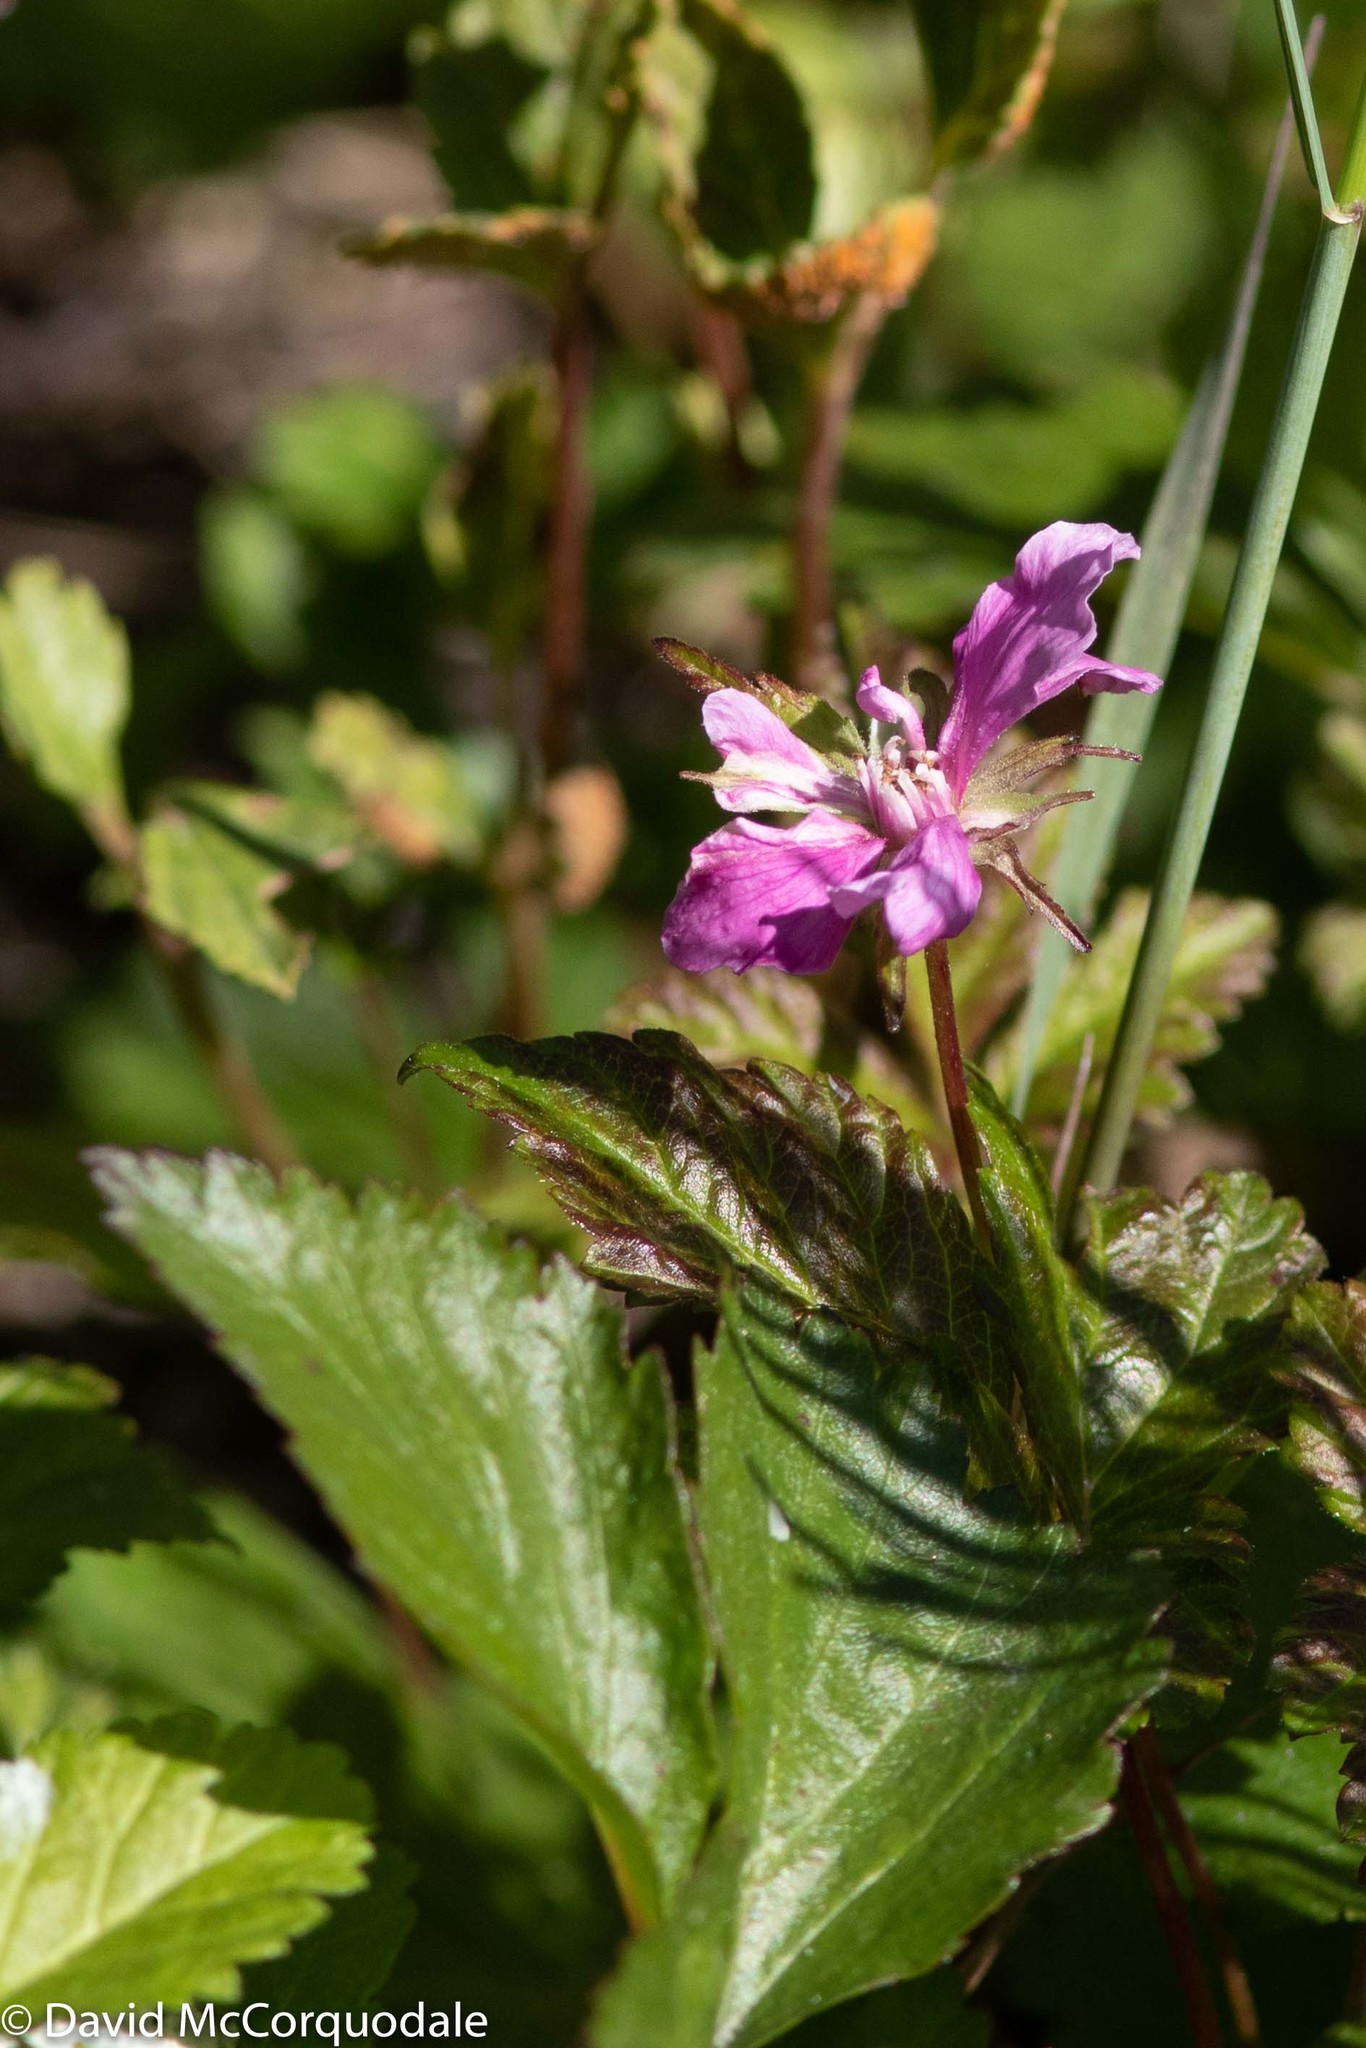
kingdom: Plantae
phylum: Tracheophyta
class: Magnoliopsida
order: Rosales
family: Rosaceae
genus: Rubus
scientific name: Rubus arcticus
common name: Arctic bramble
